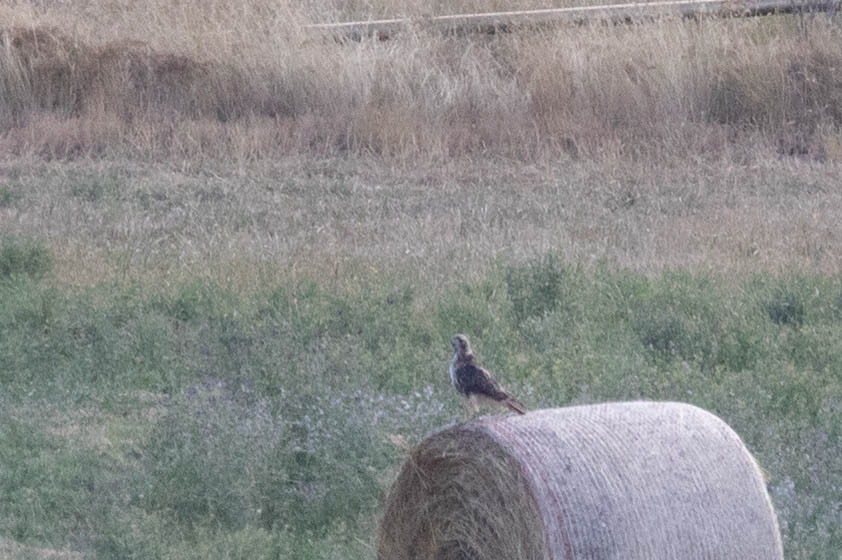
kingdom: Animalia
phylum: Chordata
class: Aves
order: Accipitriformes
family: Accipitridae
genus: Buteo
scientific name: Buteo jamaicensis
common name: Red-tailed hawk
